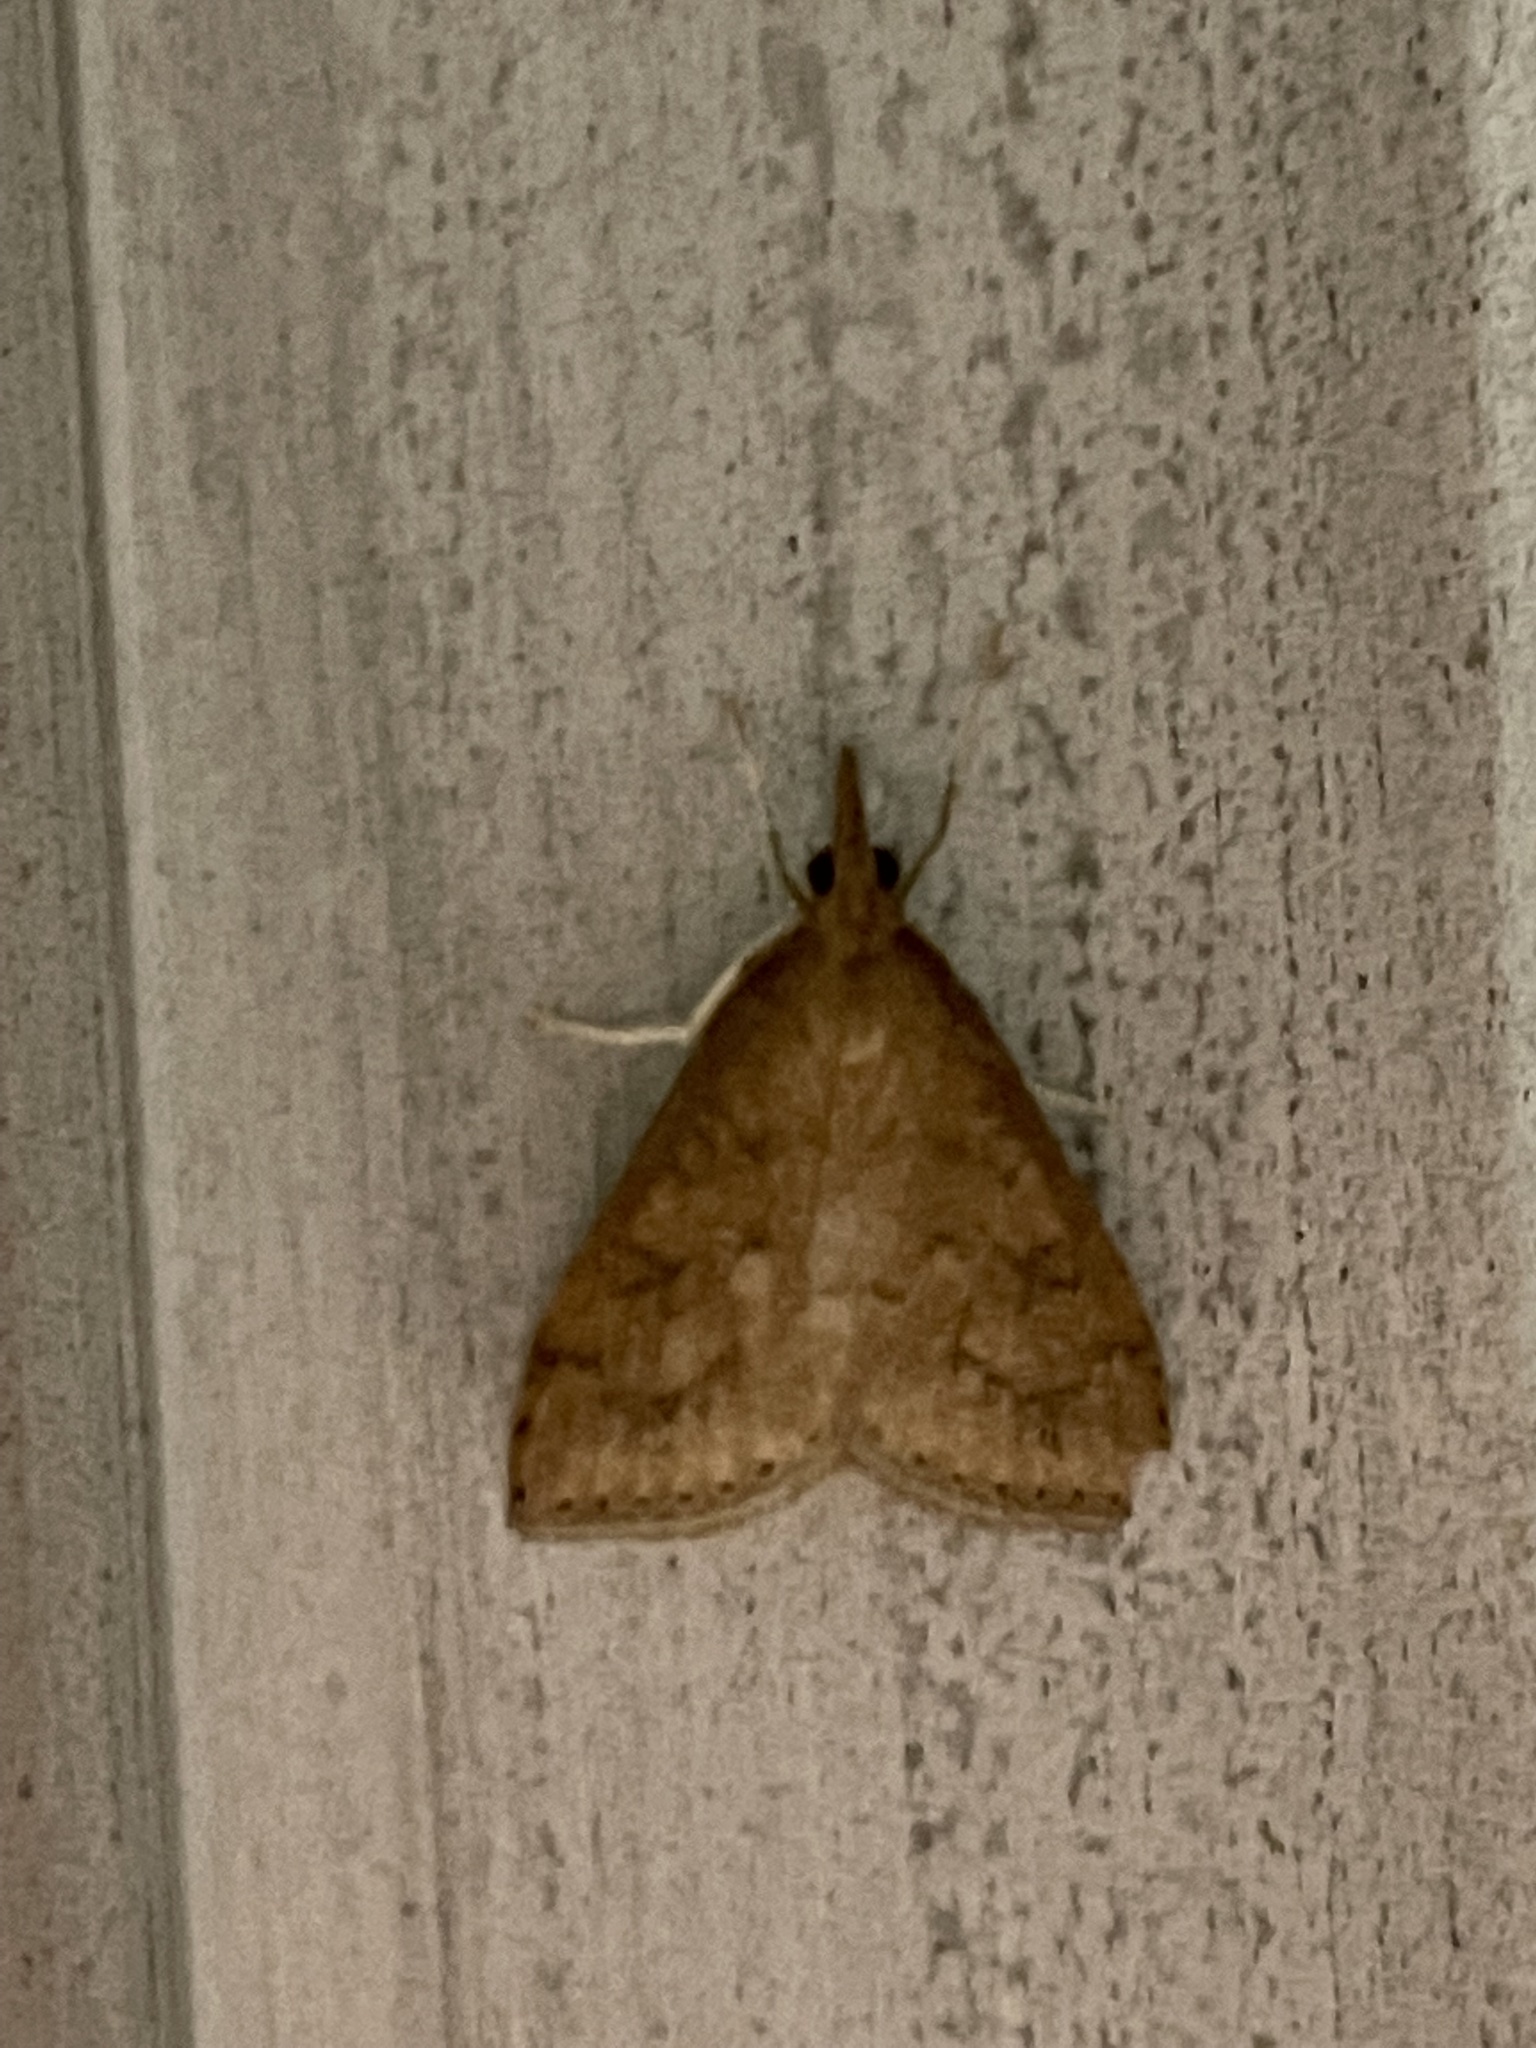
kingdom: Animalia
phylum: Arthropoda
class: Insecta
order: Lepidoptera
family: Crambidae
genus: Udea
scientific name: Udea rubigalis
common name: Celery leaftier moth
